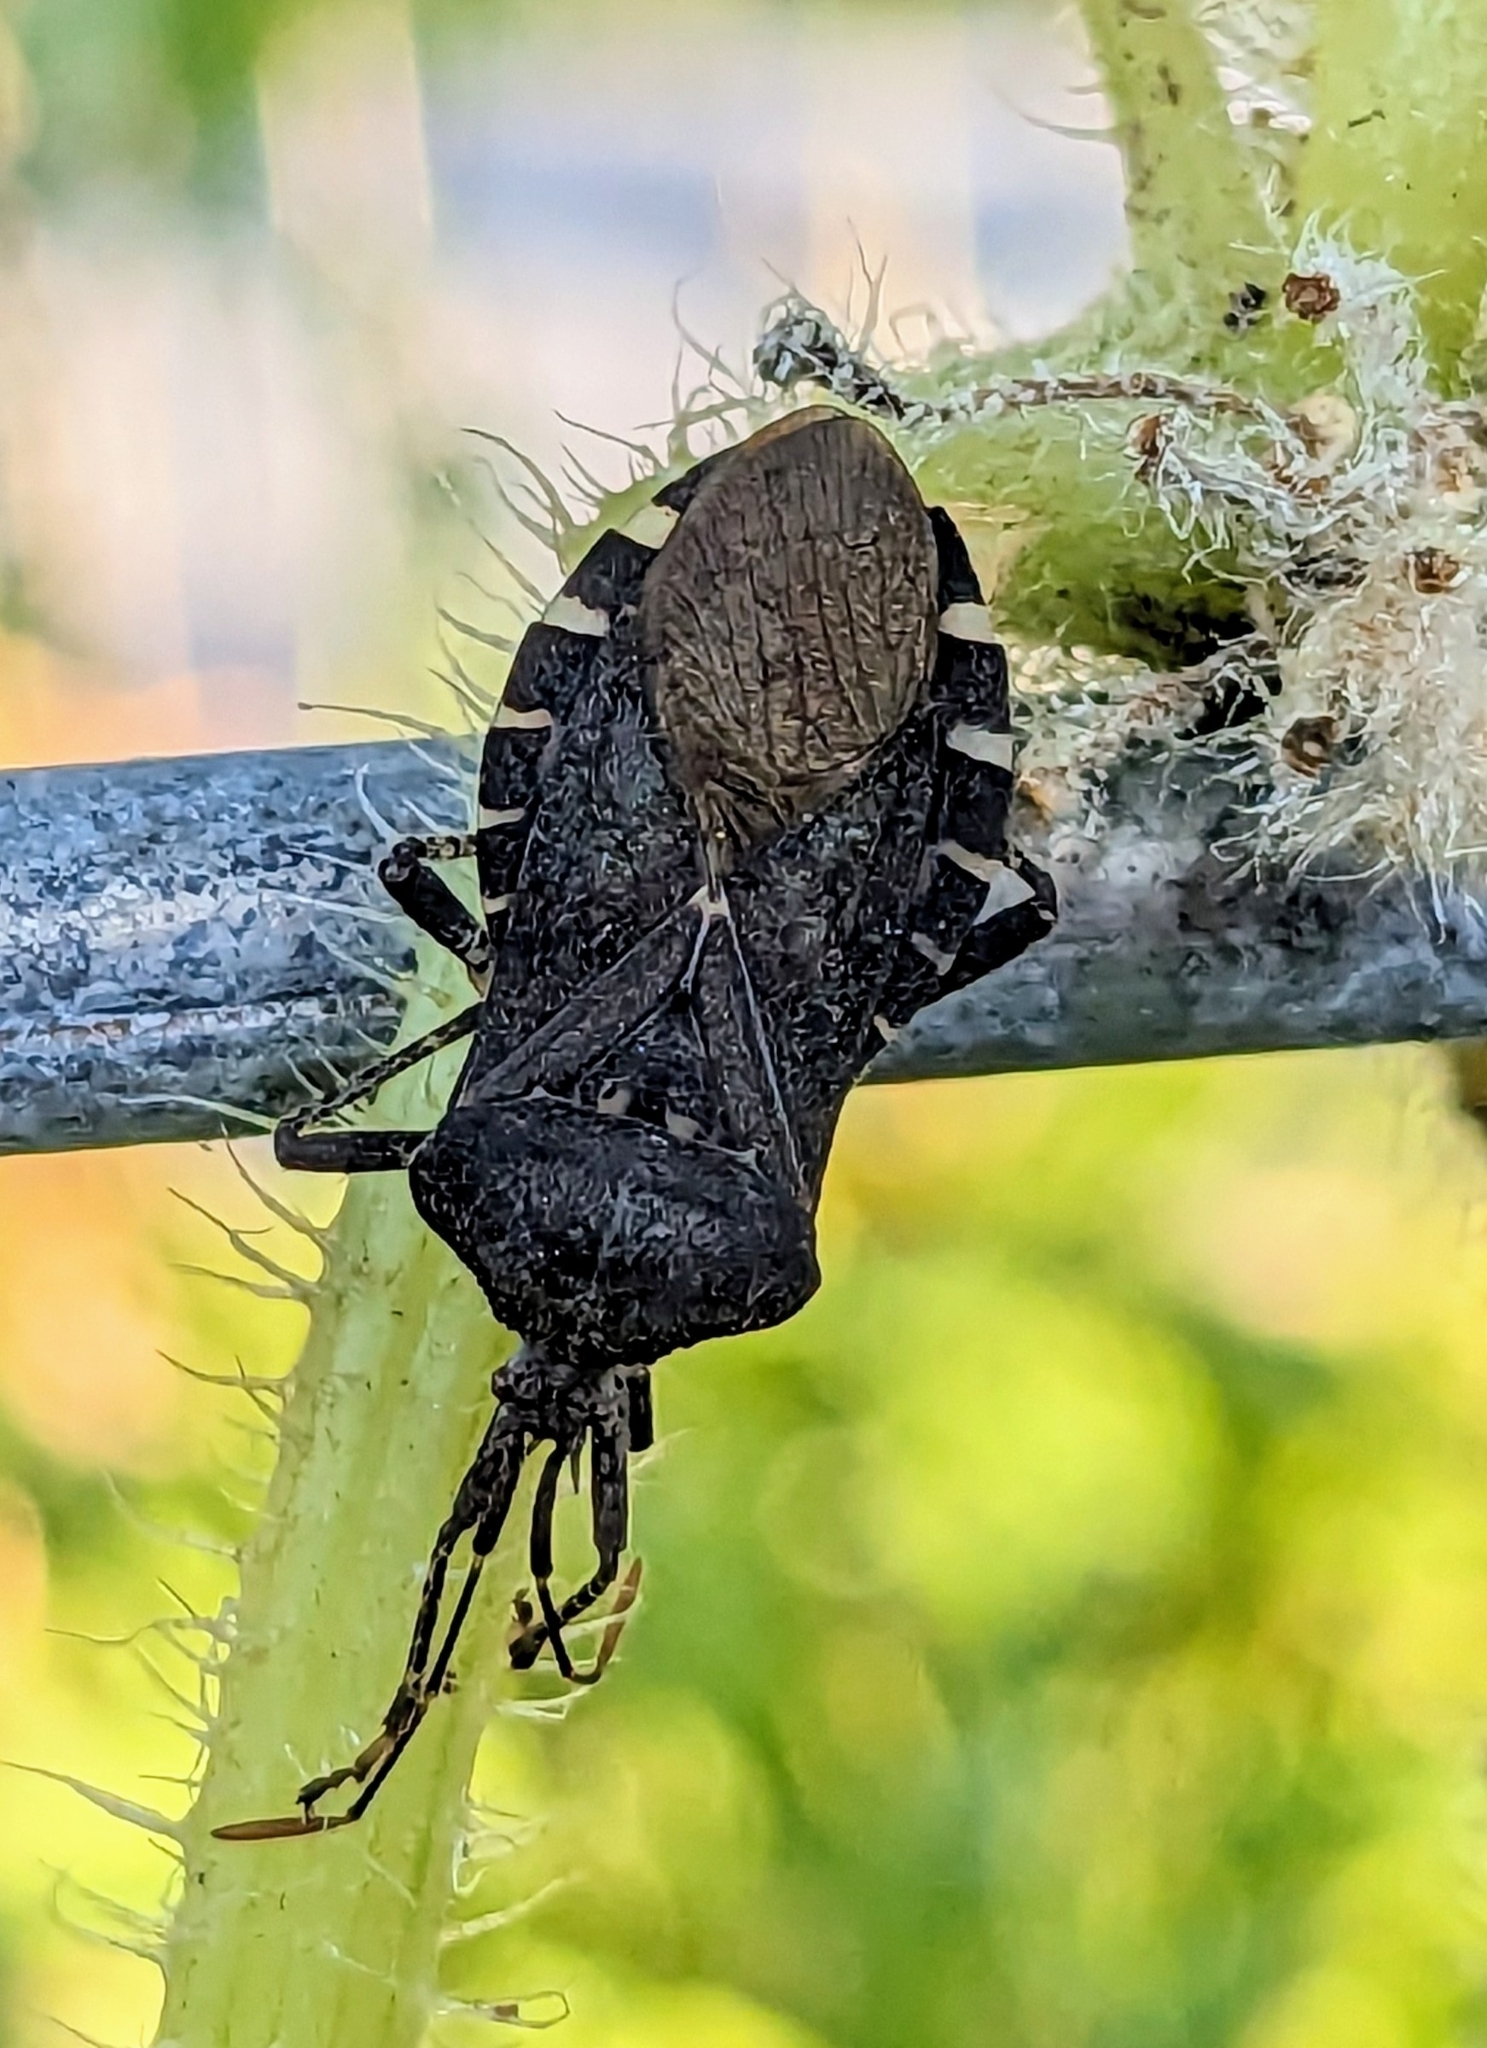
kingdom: Animalia
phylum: Arthropoda
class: Insecta
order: Hemiptera
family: Coreidae
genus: Anasa
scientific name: Anasa armigera
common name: Horned squash bug
